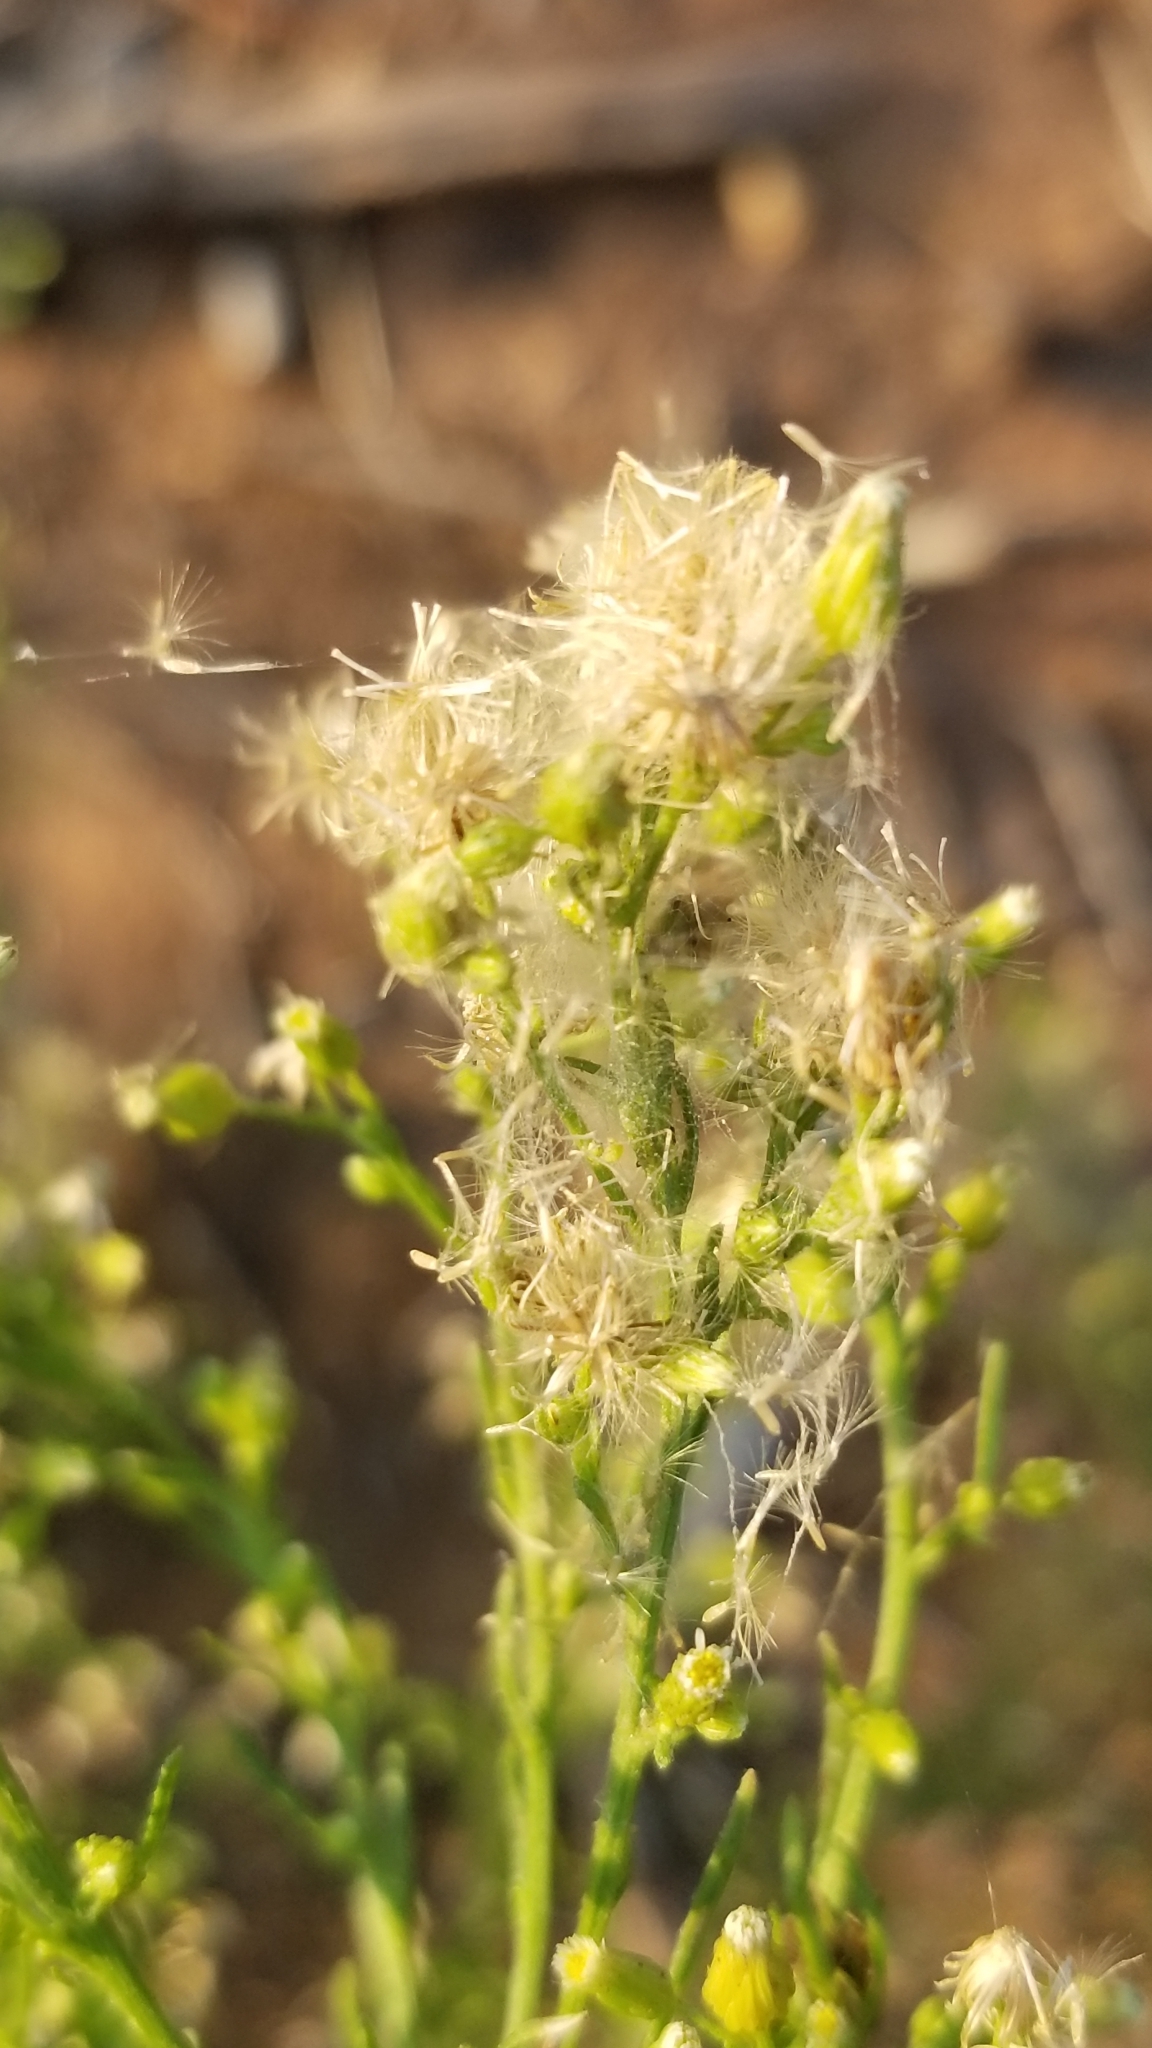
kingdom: Plantae
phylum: Tracheophyta
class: Magnoliopsida
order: Asterales
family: Asteraceae
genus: Erigeron
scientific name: Erigeron canadensis
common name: Canadian fleabane
